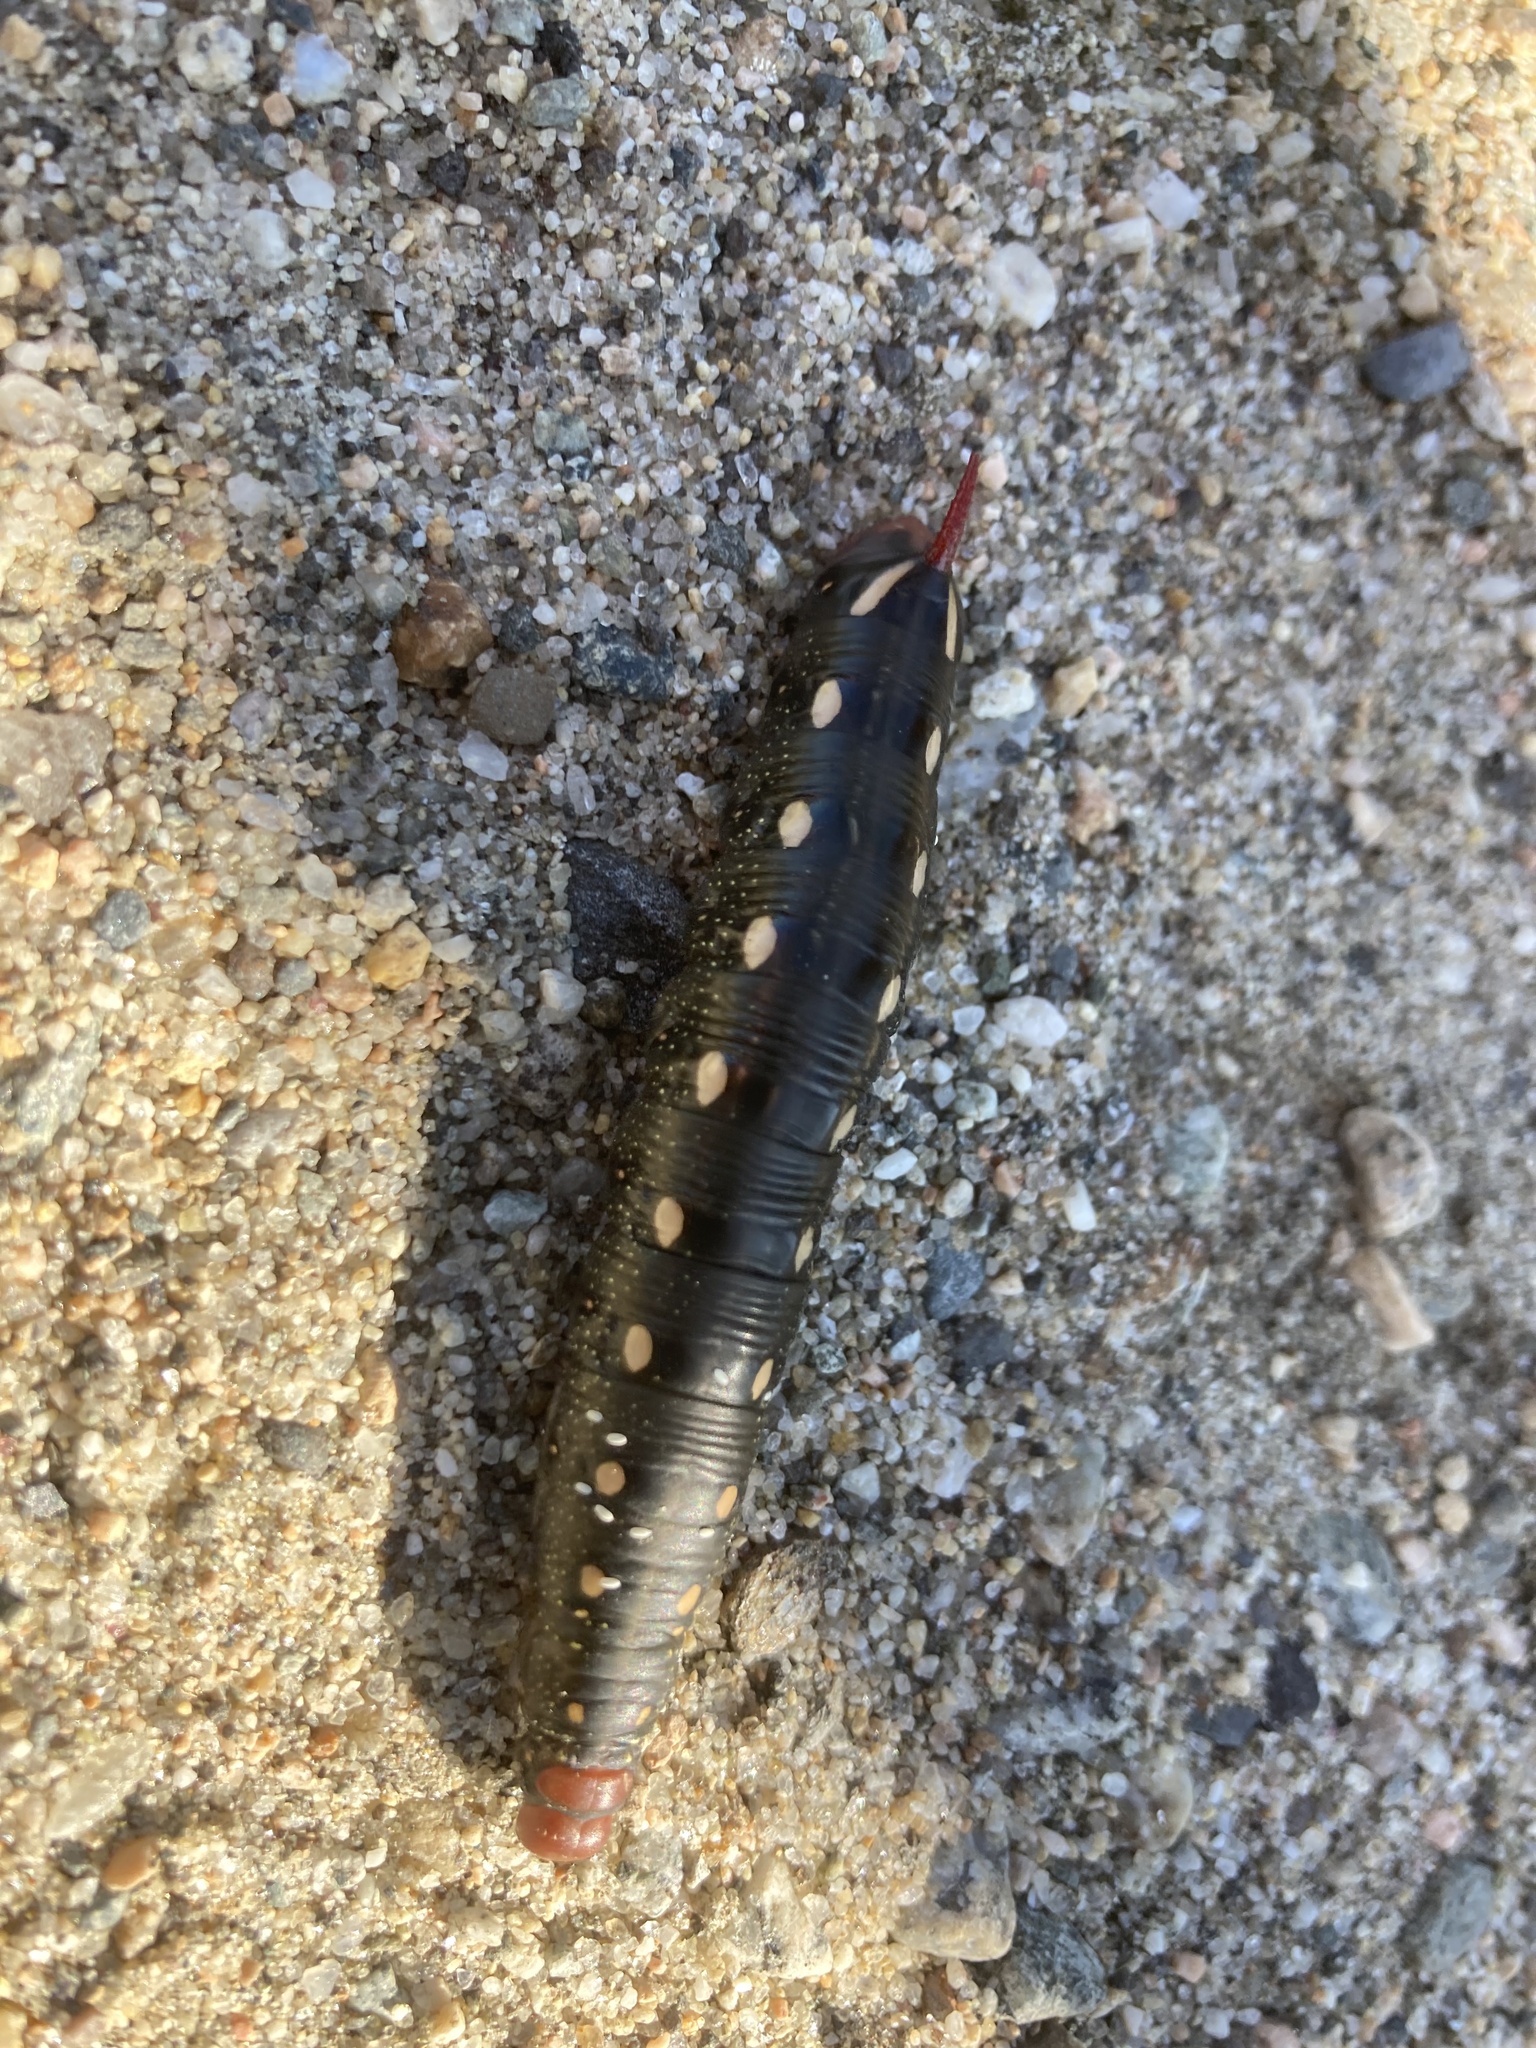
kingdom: Animalia
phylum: Arthropoda
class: Insecta
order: Lepidoptera
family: Sphingidae
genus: Hyles
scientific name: Hyles gallii
